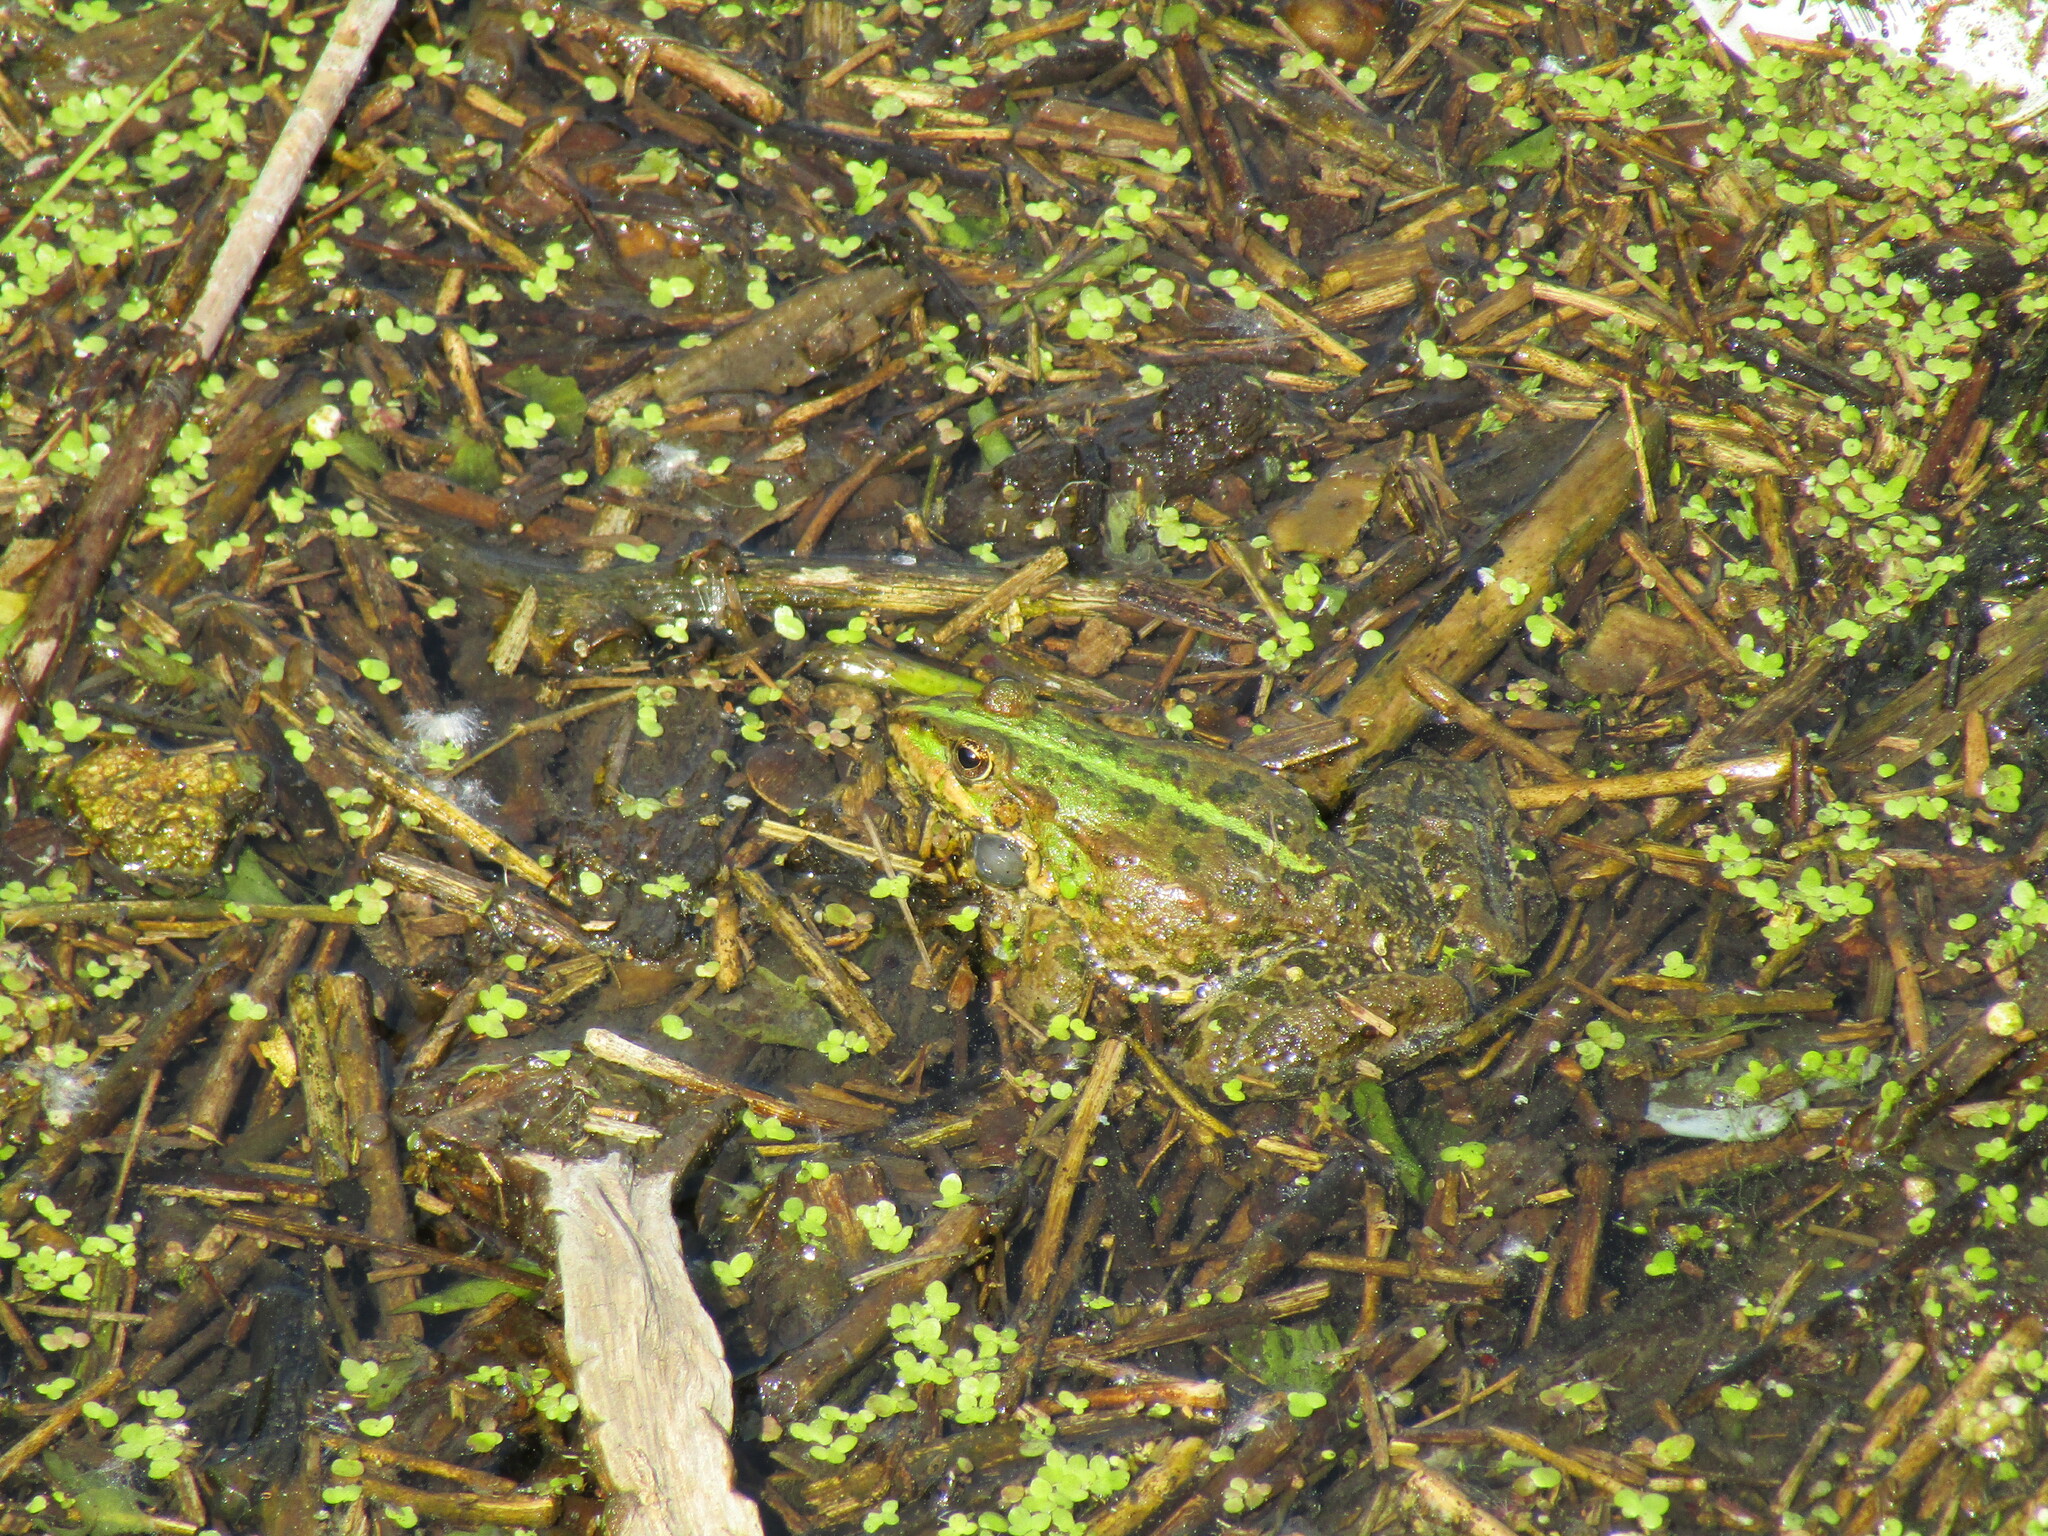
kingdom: Animalia
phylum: Chordata
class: Amphibia
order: Anura
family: Ranidae
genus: Pelophylax
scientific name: Pelophylax ridibundus
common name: Marsh frog
